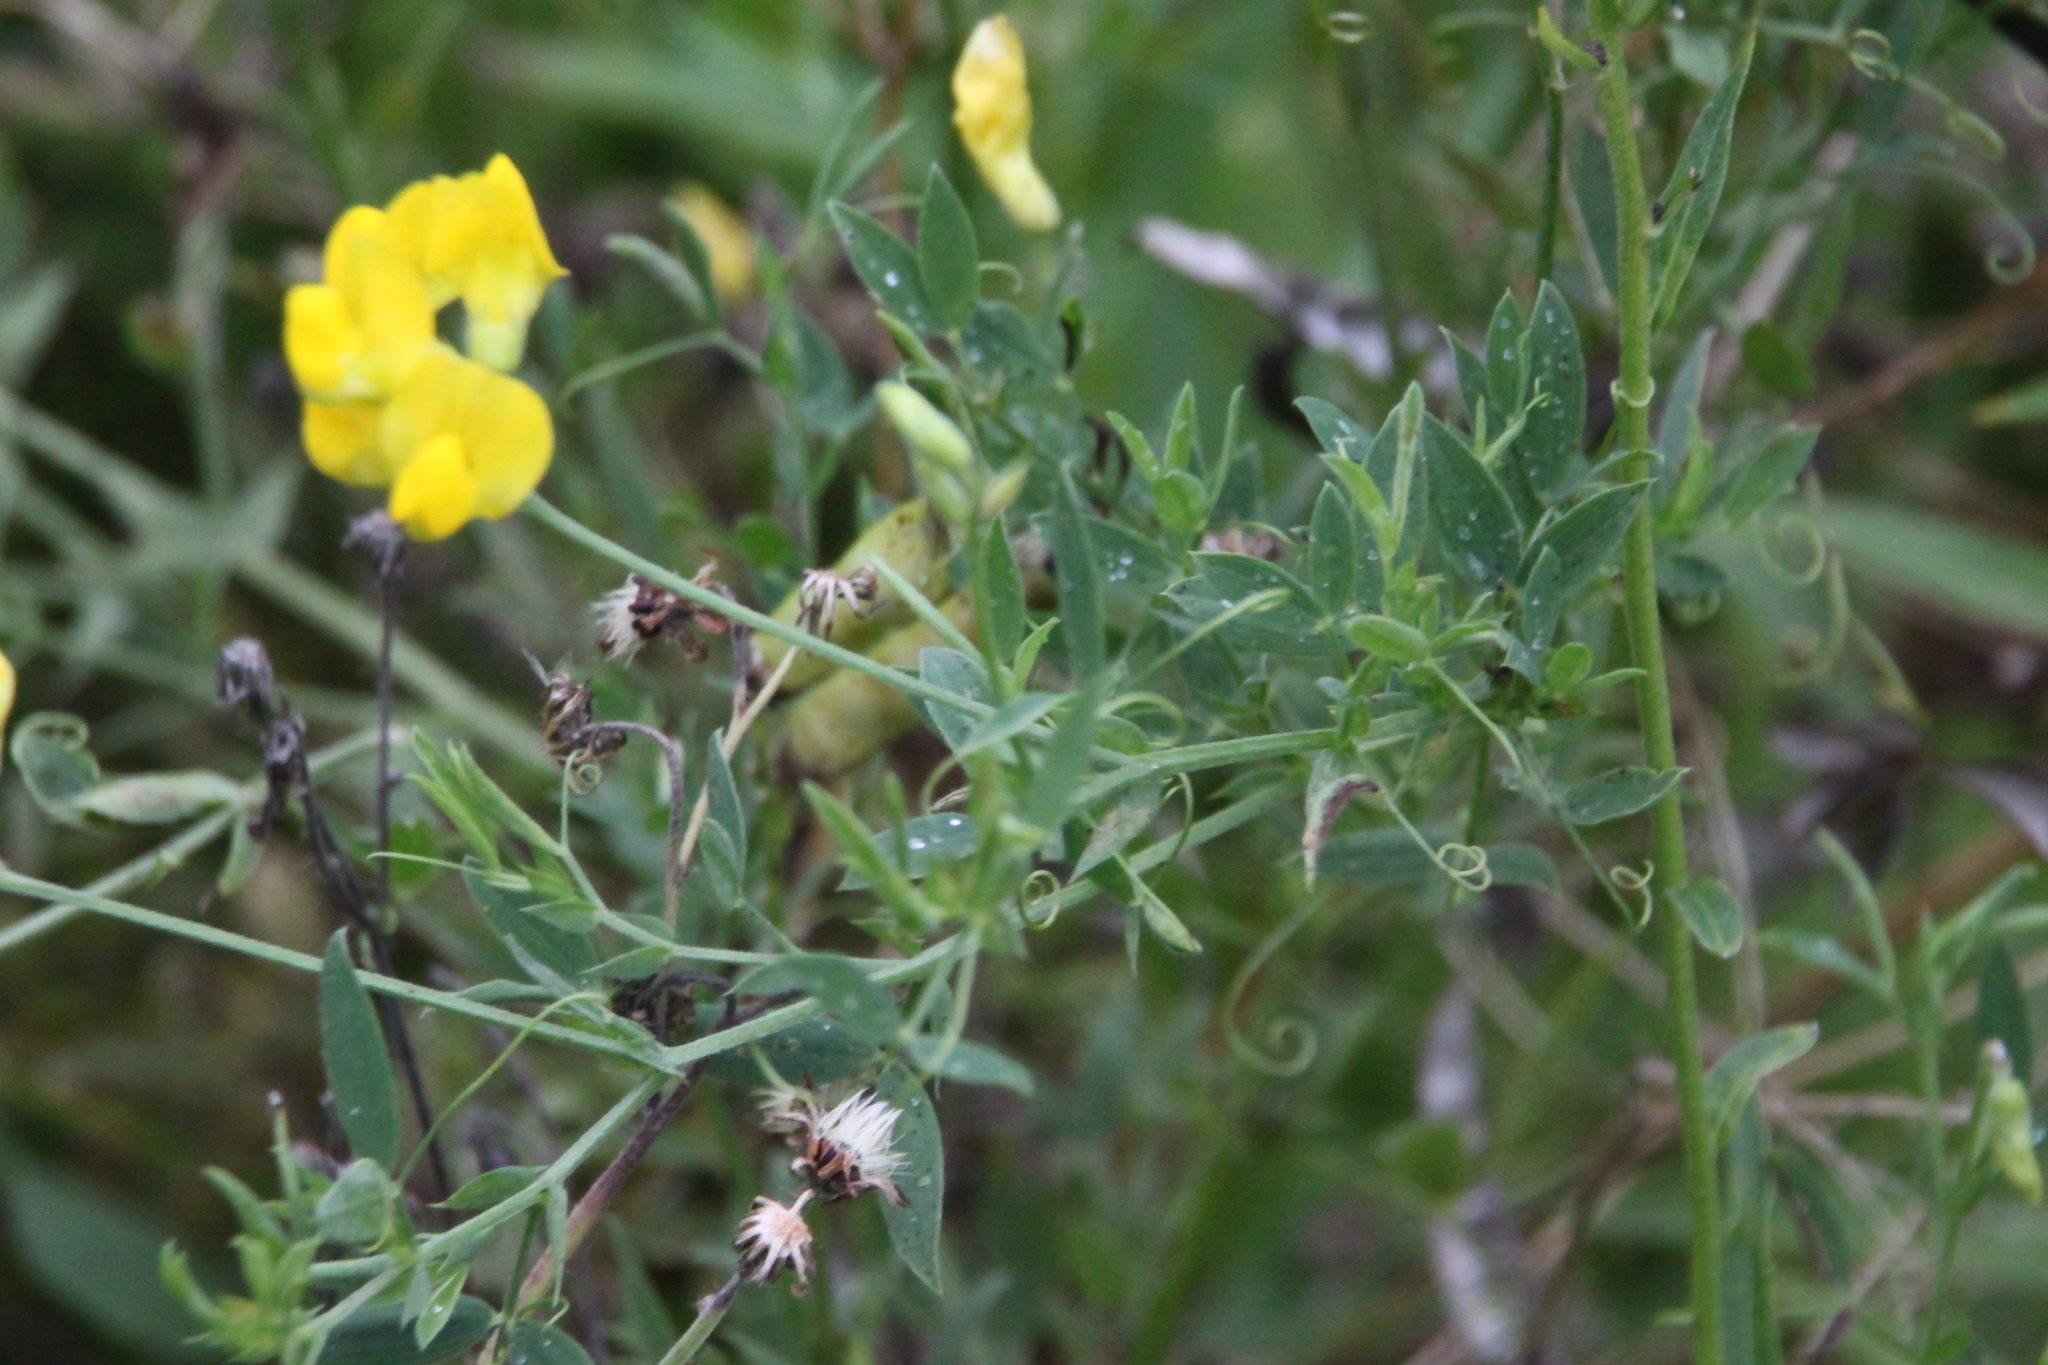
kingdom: Plantae
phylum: Tracheophyta
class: Magnoliopsida
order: Fabales
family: Fabaceae
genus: Lathyrus
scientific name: Lathyrus pratensis
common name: Meadow vetchling
